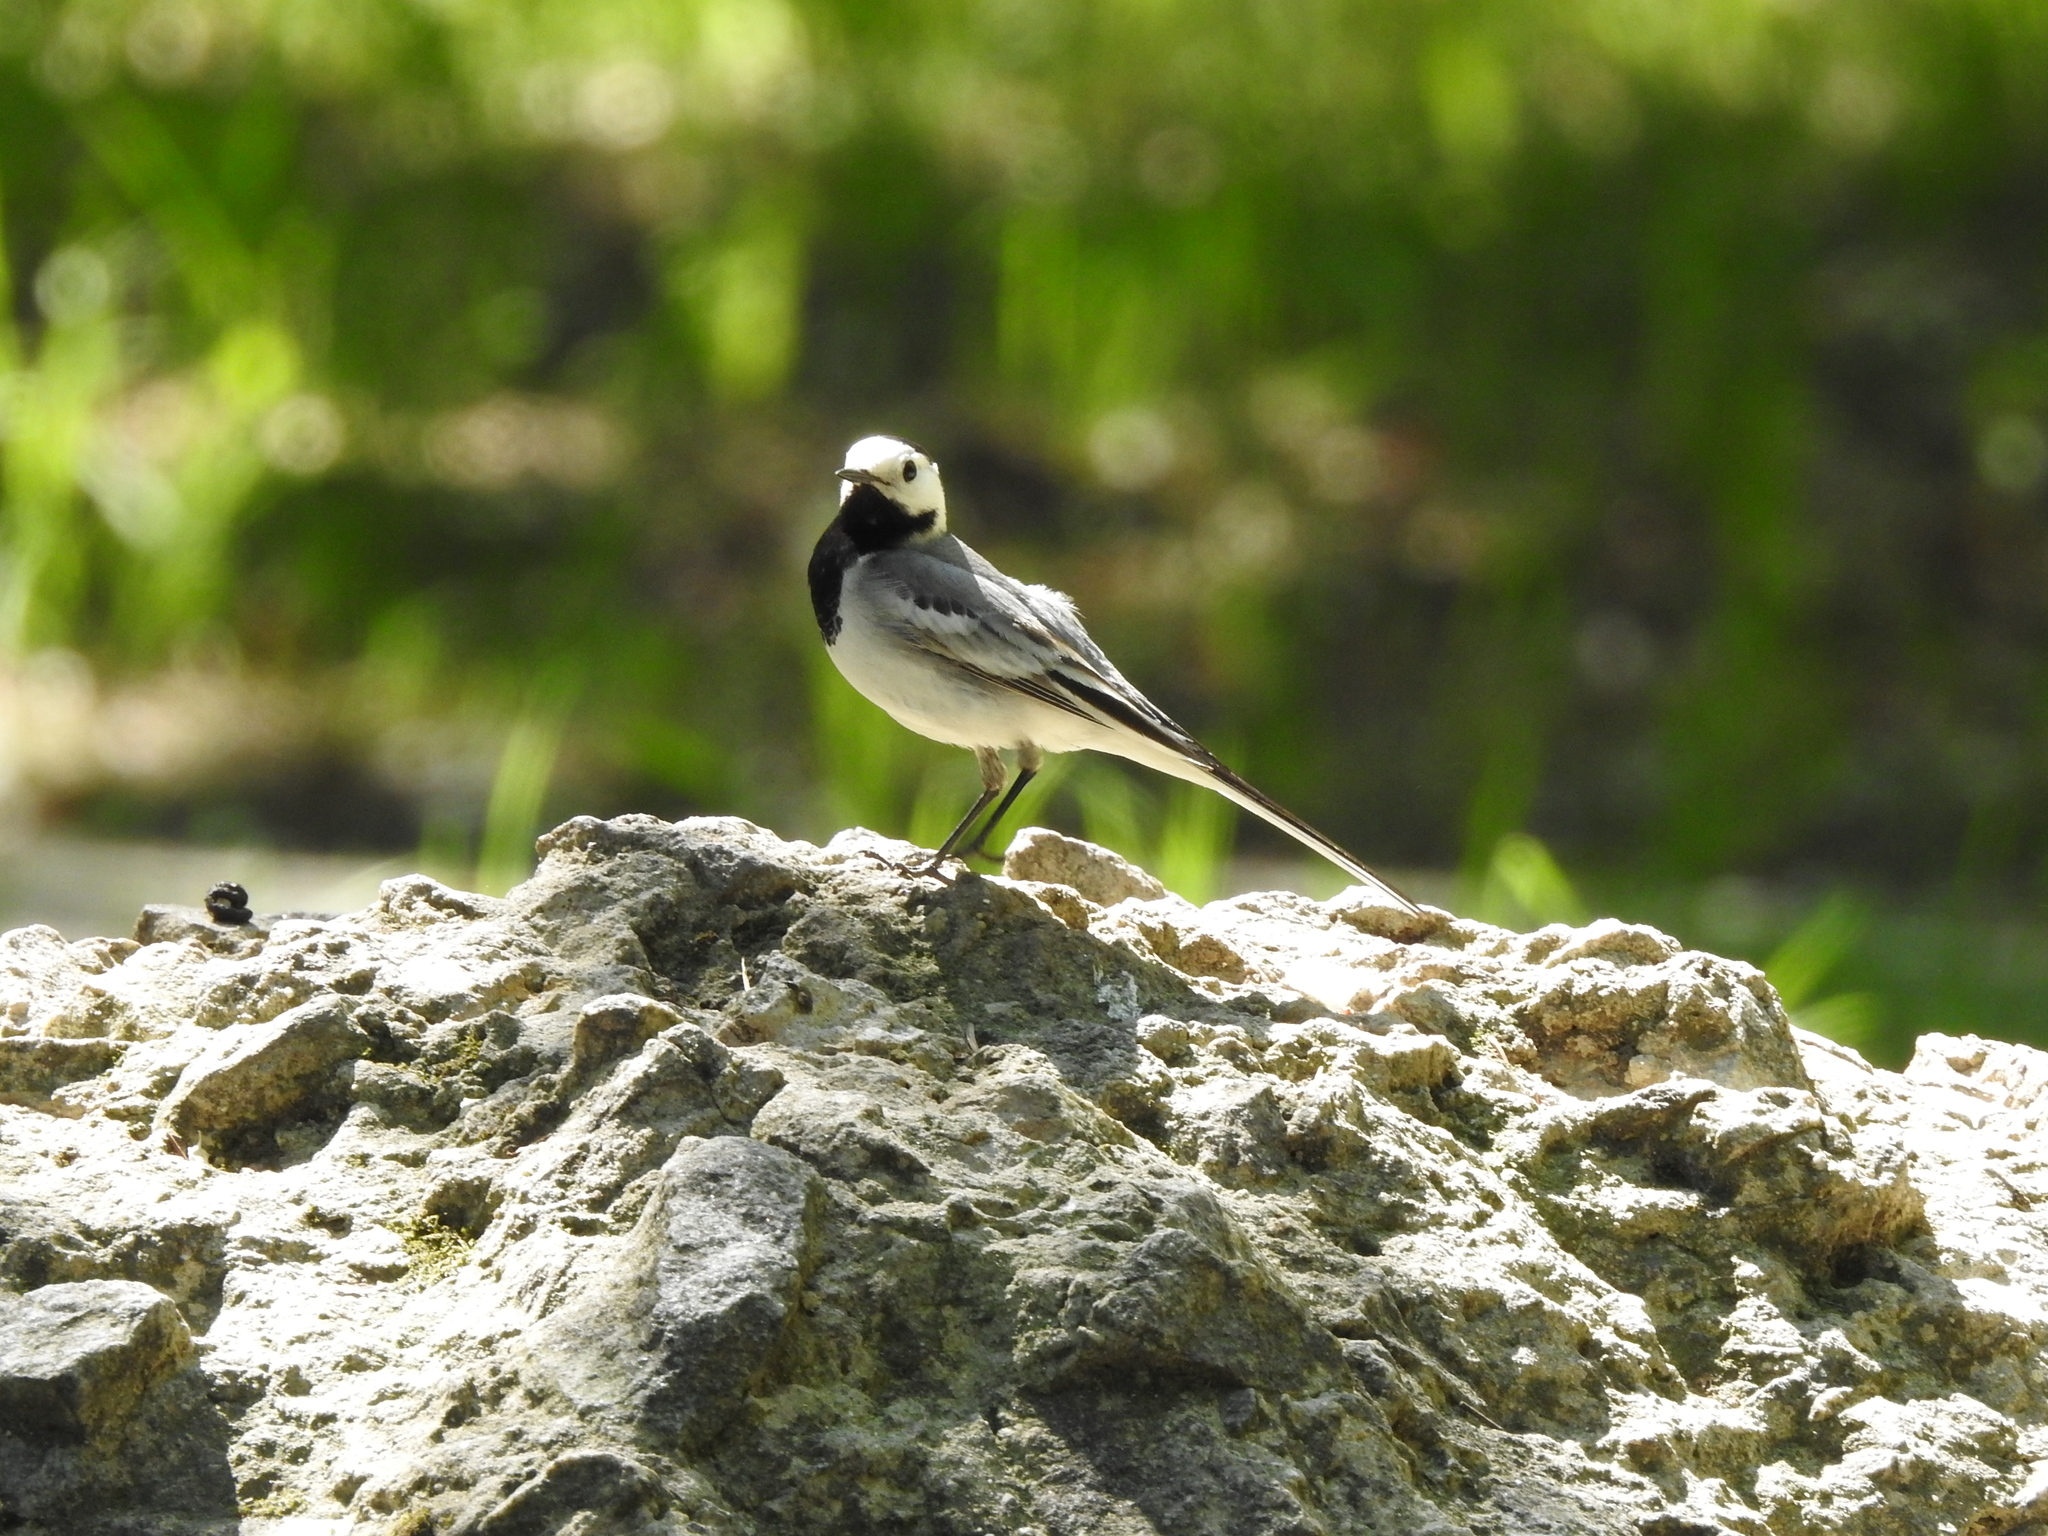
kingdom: Animalia
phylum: Chordata
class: Aves
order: Passeriformes
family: Motacillidae
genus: Motacilla
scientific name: Motacilla alba
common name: White wagtail
